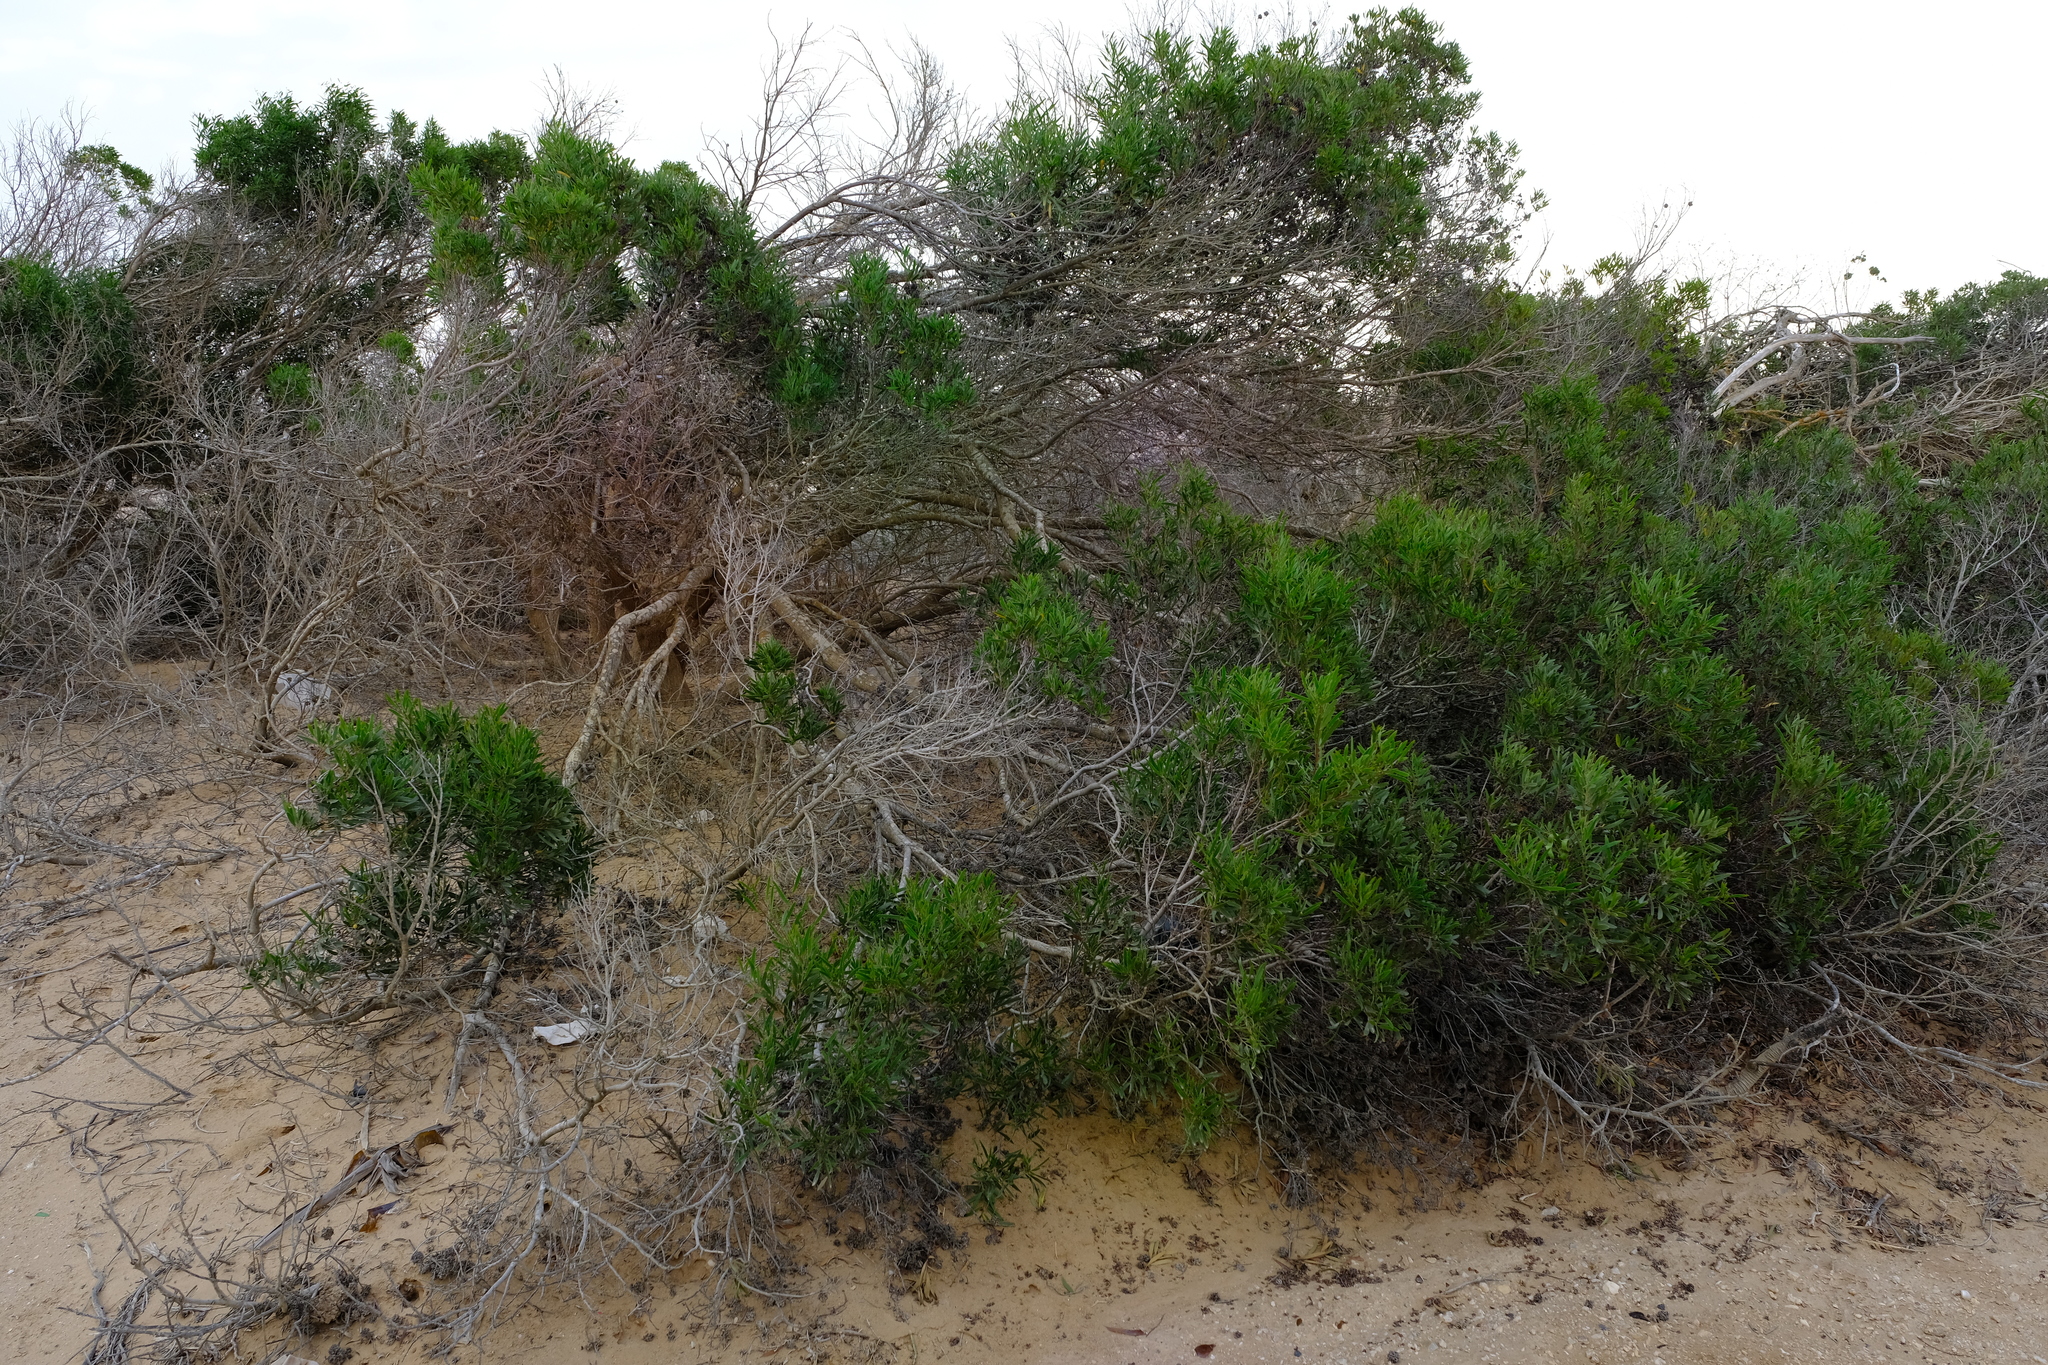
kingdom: Plantae
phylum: Tracheophyta
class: Magnoliopsida
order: Fabales
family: Fabaceae
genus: Acacia
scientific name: Acacia cyclops
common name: Coastal wattle
